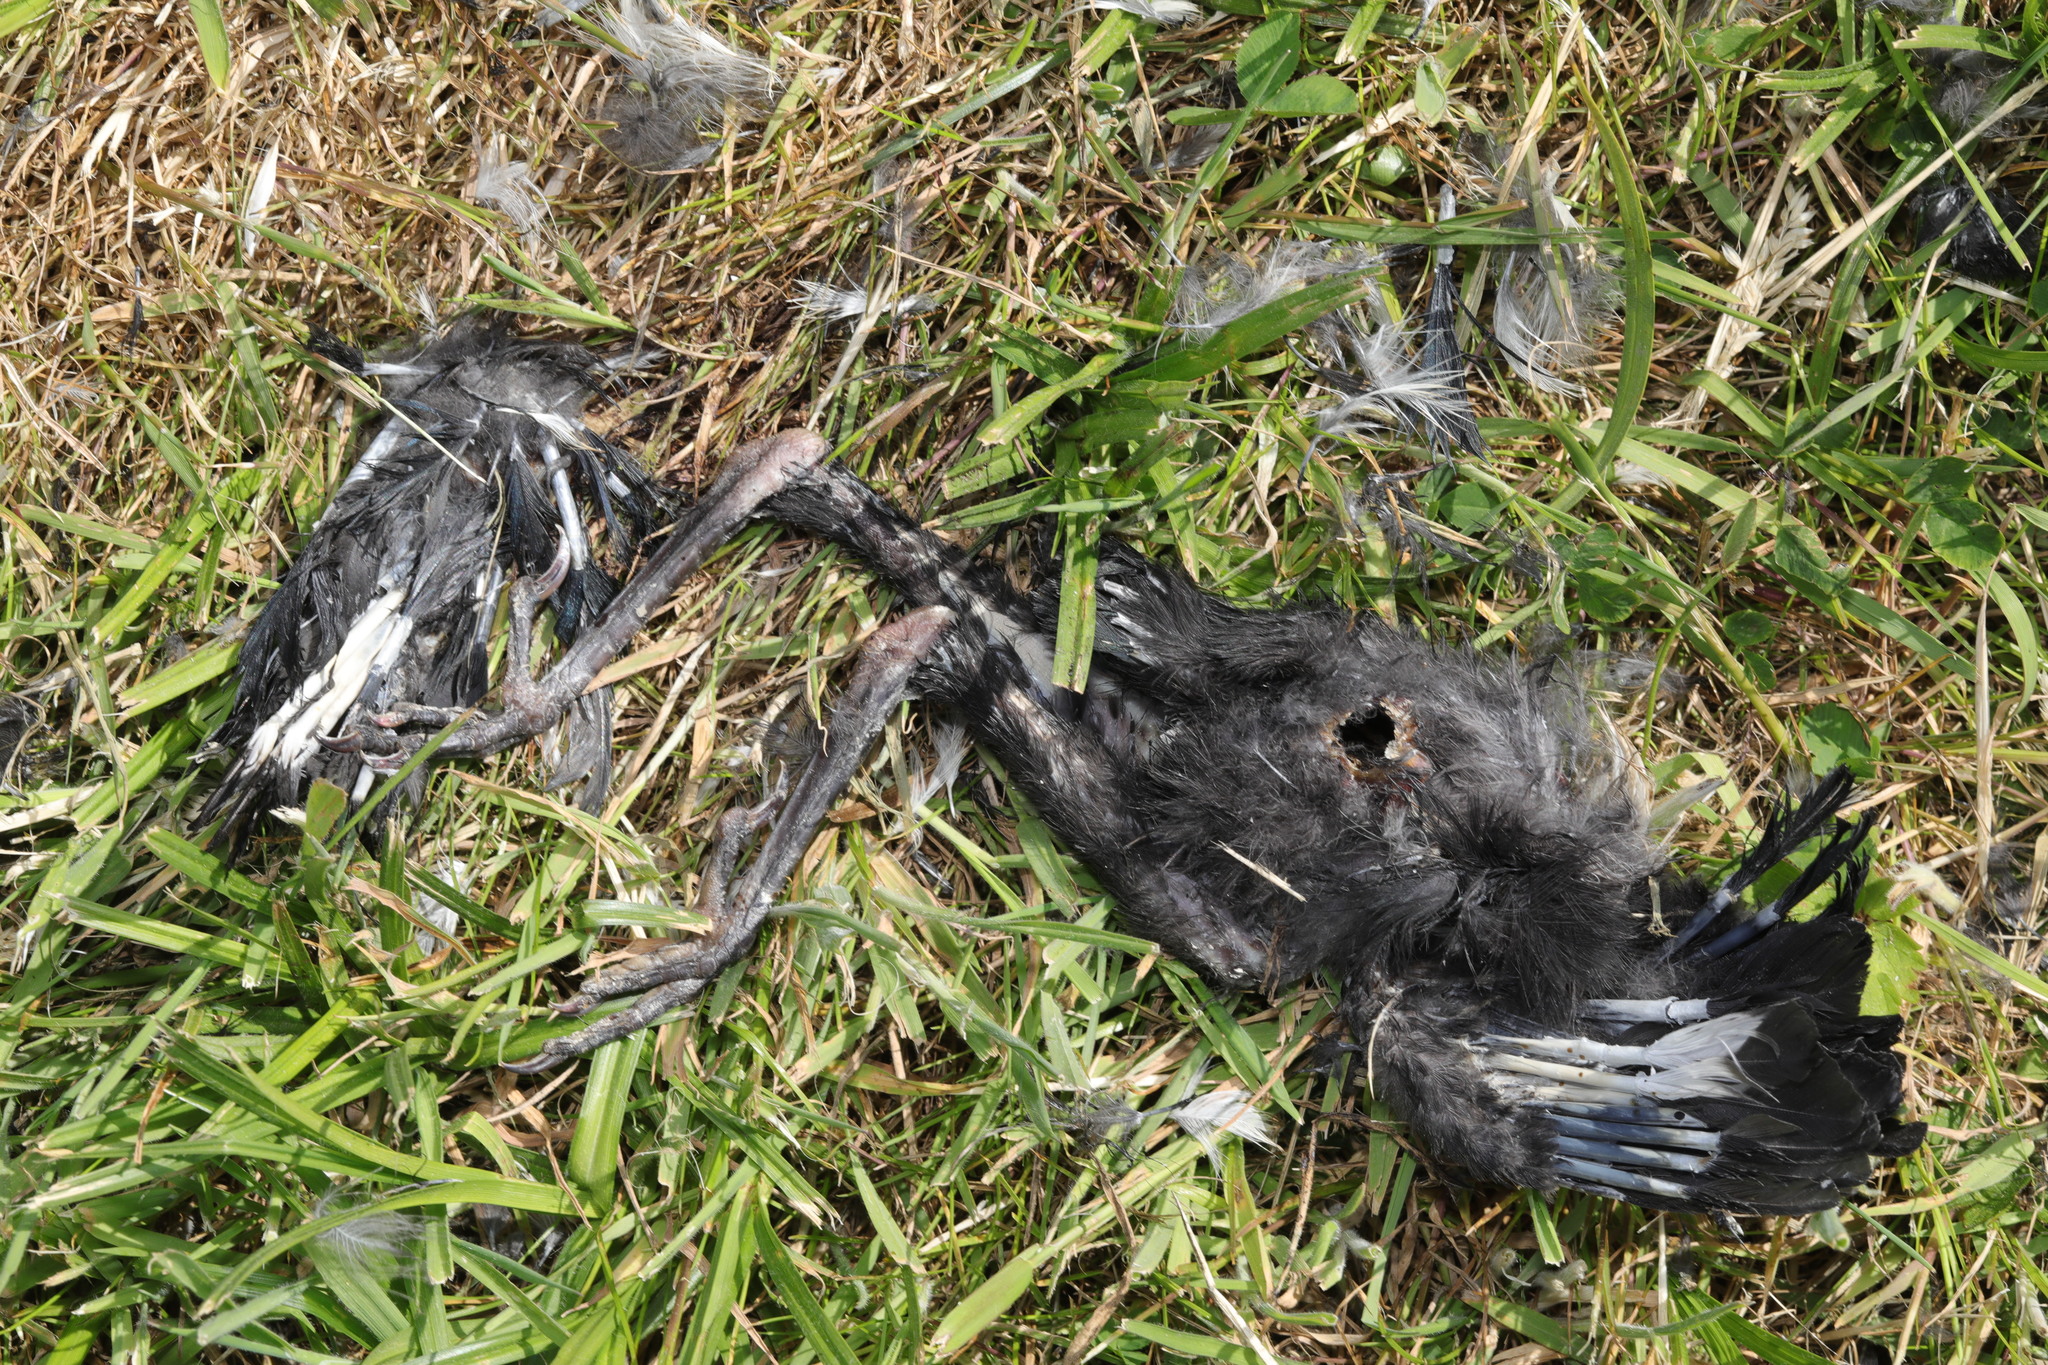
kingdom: Animalia
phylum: Chordata
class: Aves
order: Passeriformes
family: Corvidae
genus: Pica
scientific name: Pica pica
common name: Eurasian magpie
